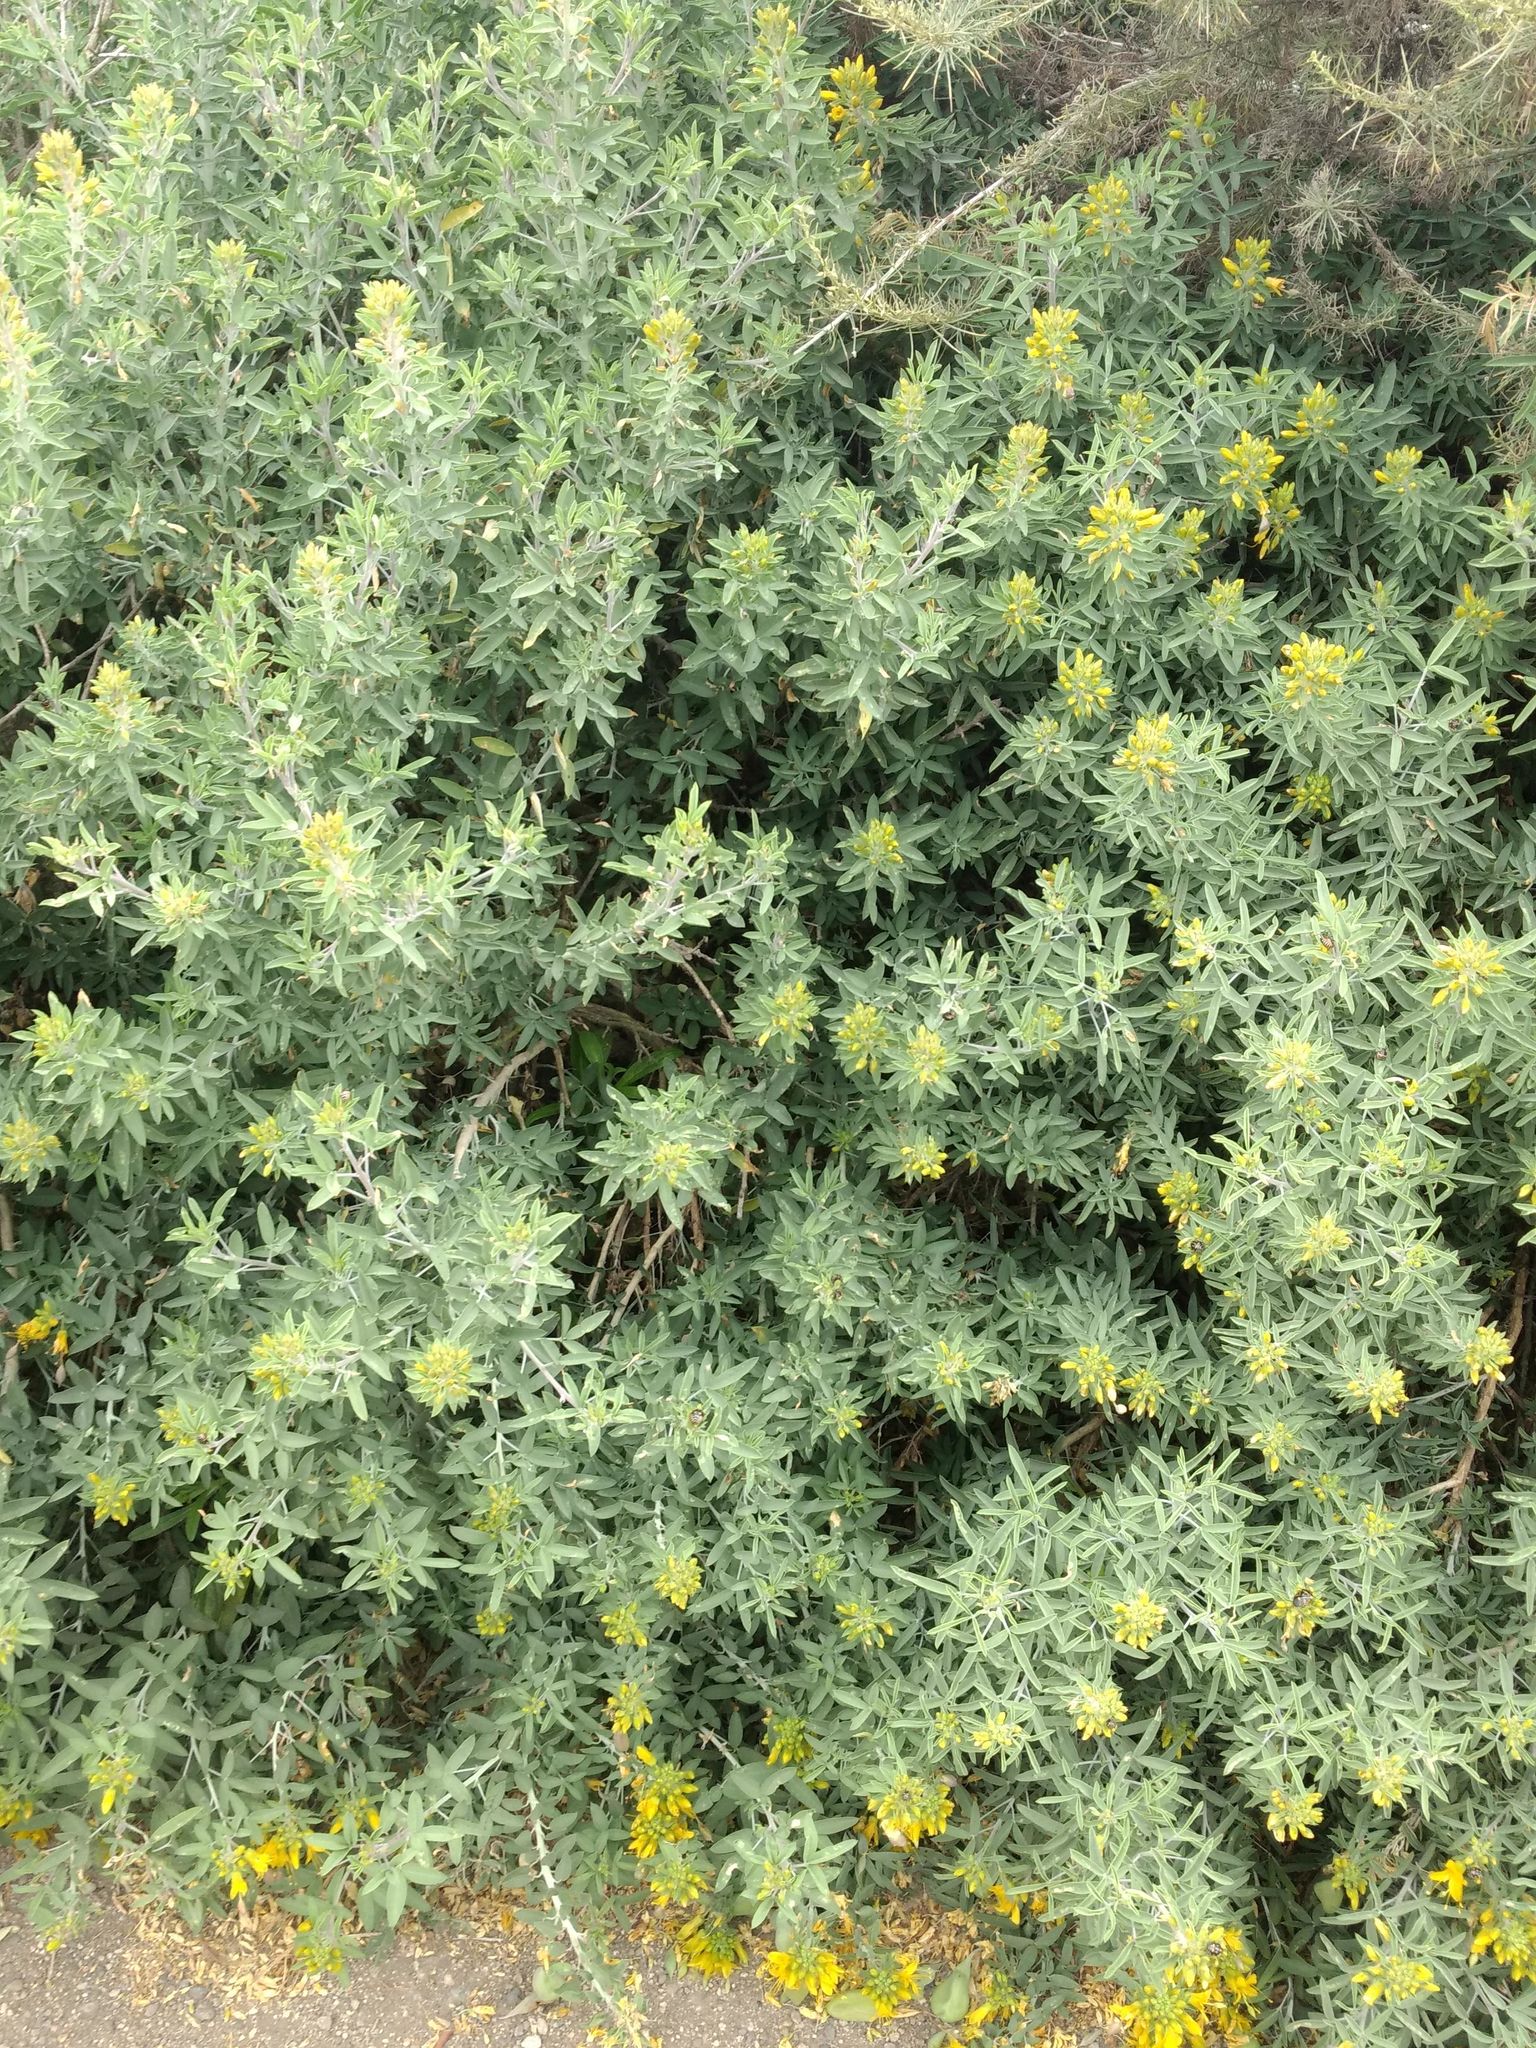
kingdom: Plantae
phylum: Tracheophyta
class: Magnoliopsida
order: Brassicales
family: Cleomaceae
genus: Cleomella
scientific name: Cleomella arborea
